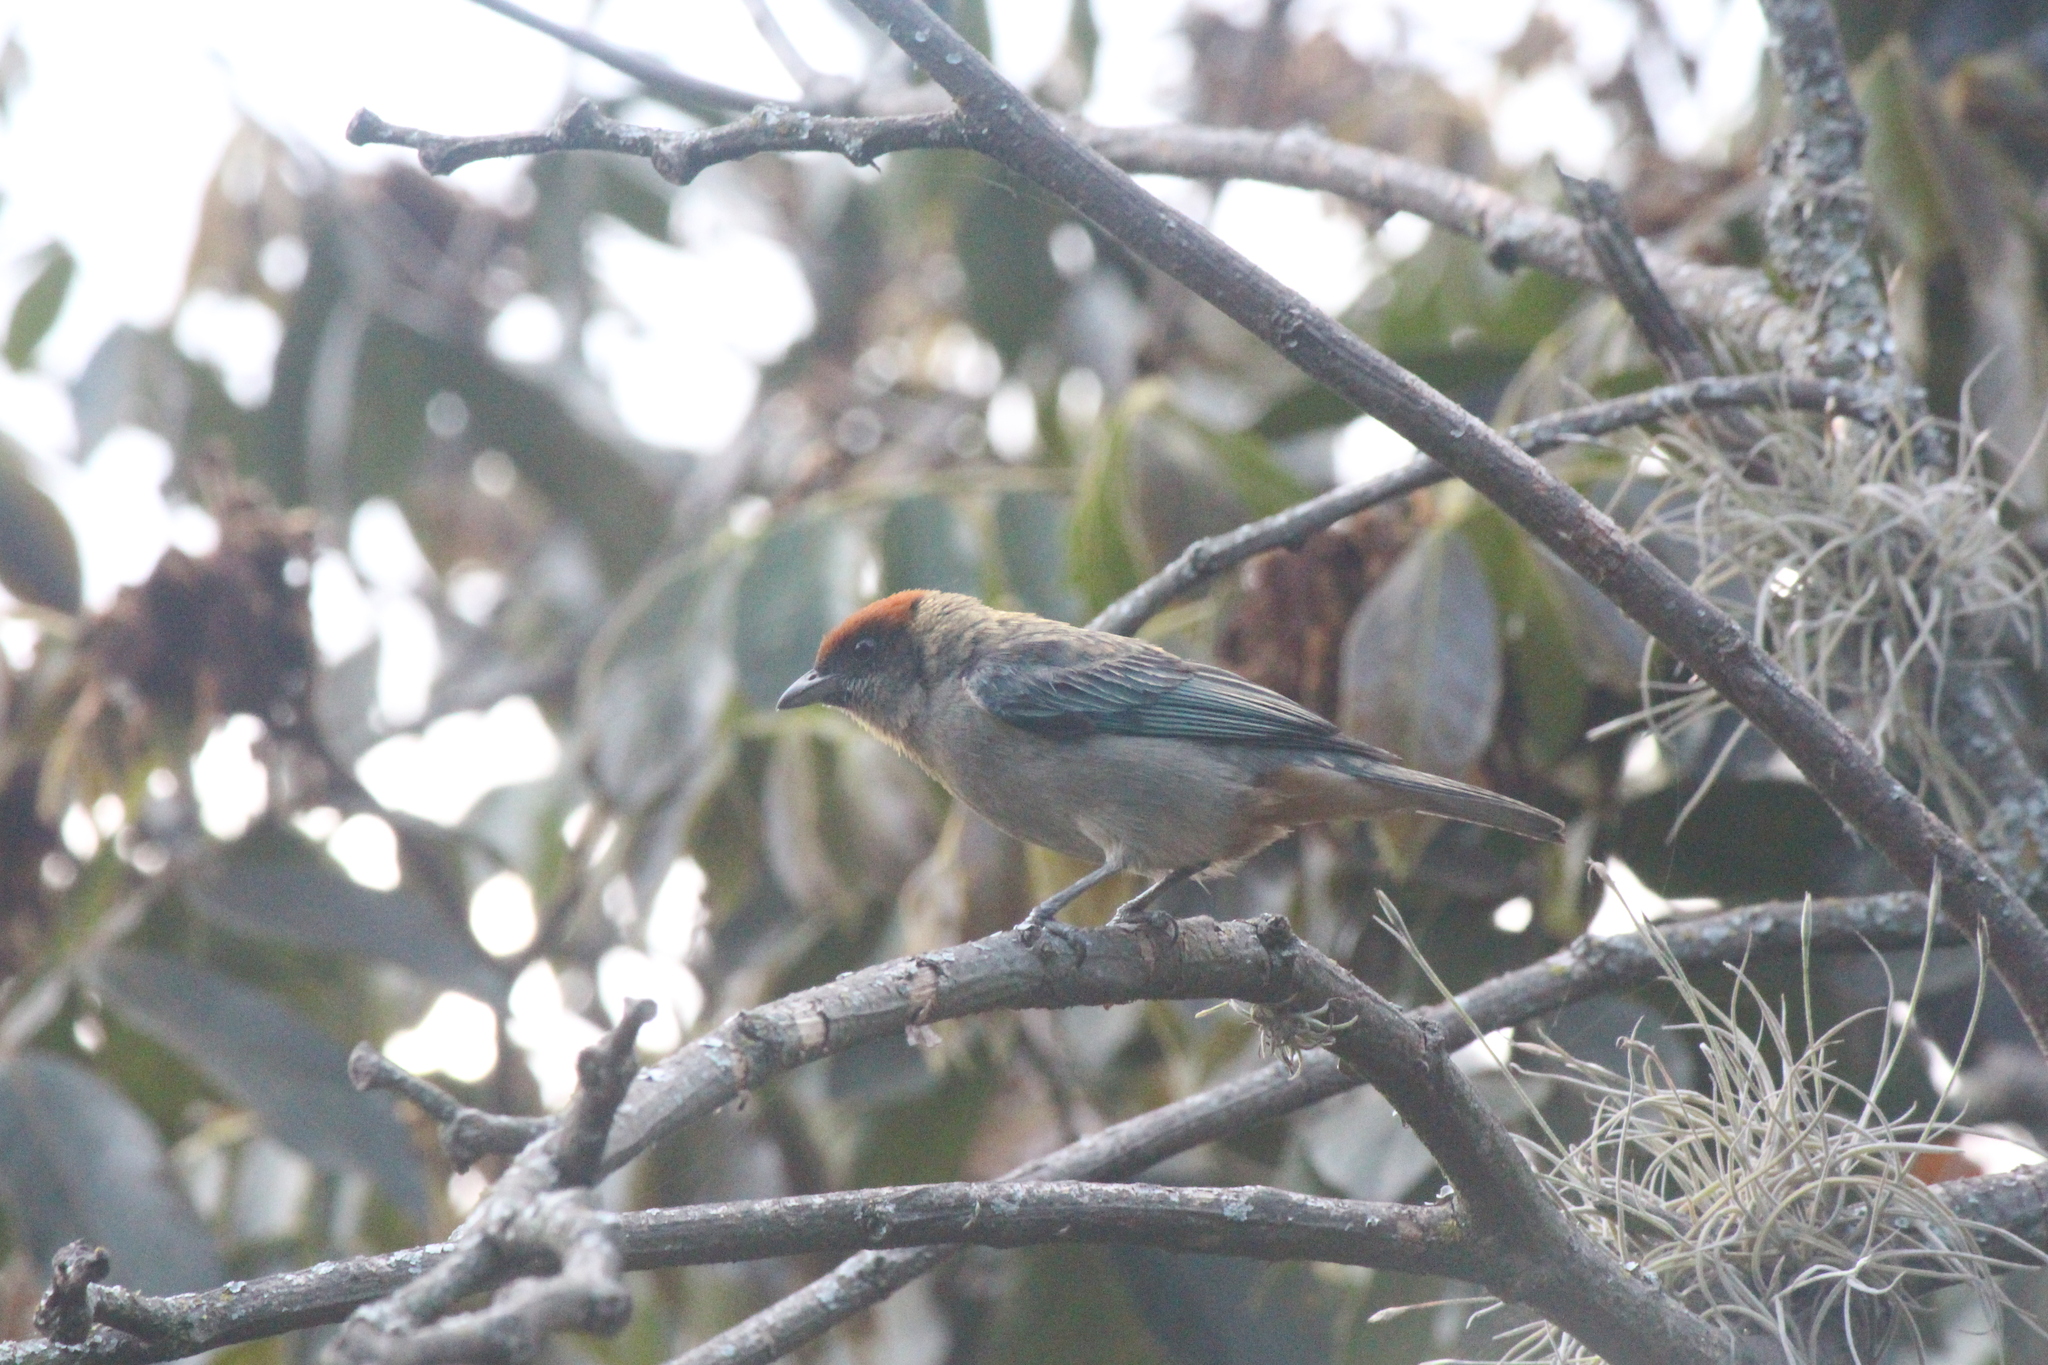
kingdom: Animalia
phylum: Chordata
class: Aves
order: Passeriformes
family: Thraupidae
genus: Stilpnia
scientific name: Stilpnia vitriolina
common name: Scrub tanager
